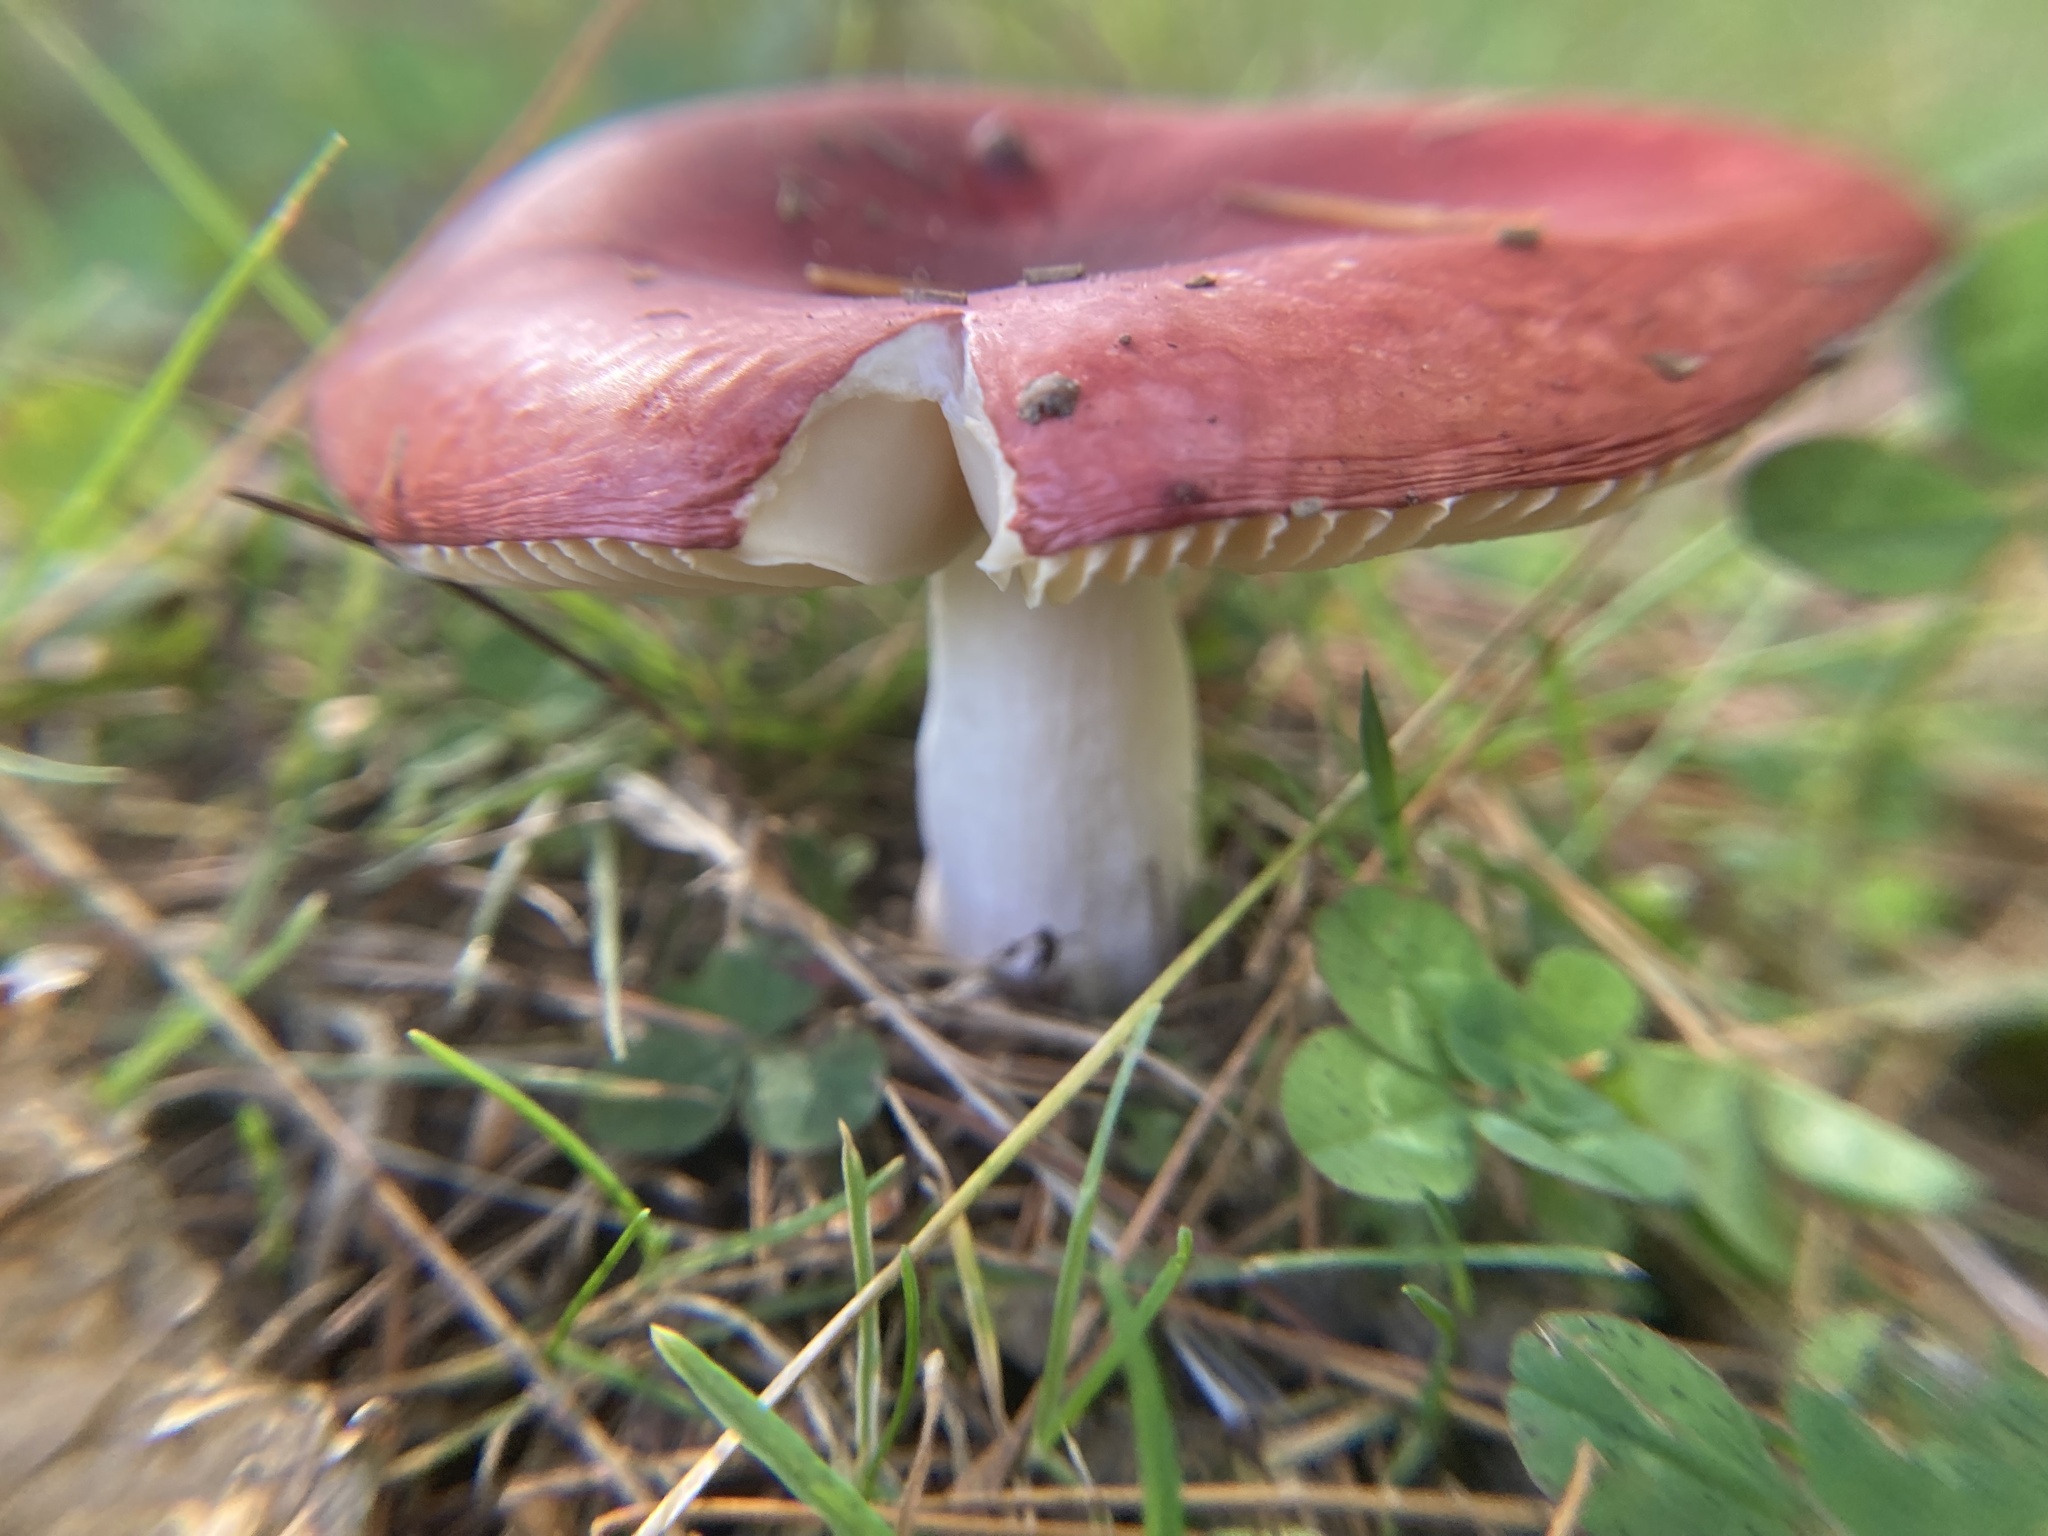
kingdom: Fungi
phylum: Basidiomycota
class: Agaricomycetes
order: Russulales
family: Russulaceae
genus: Russula
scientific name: Russula
